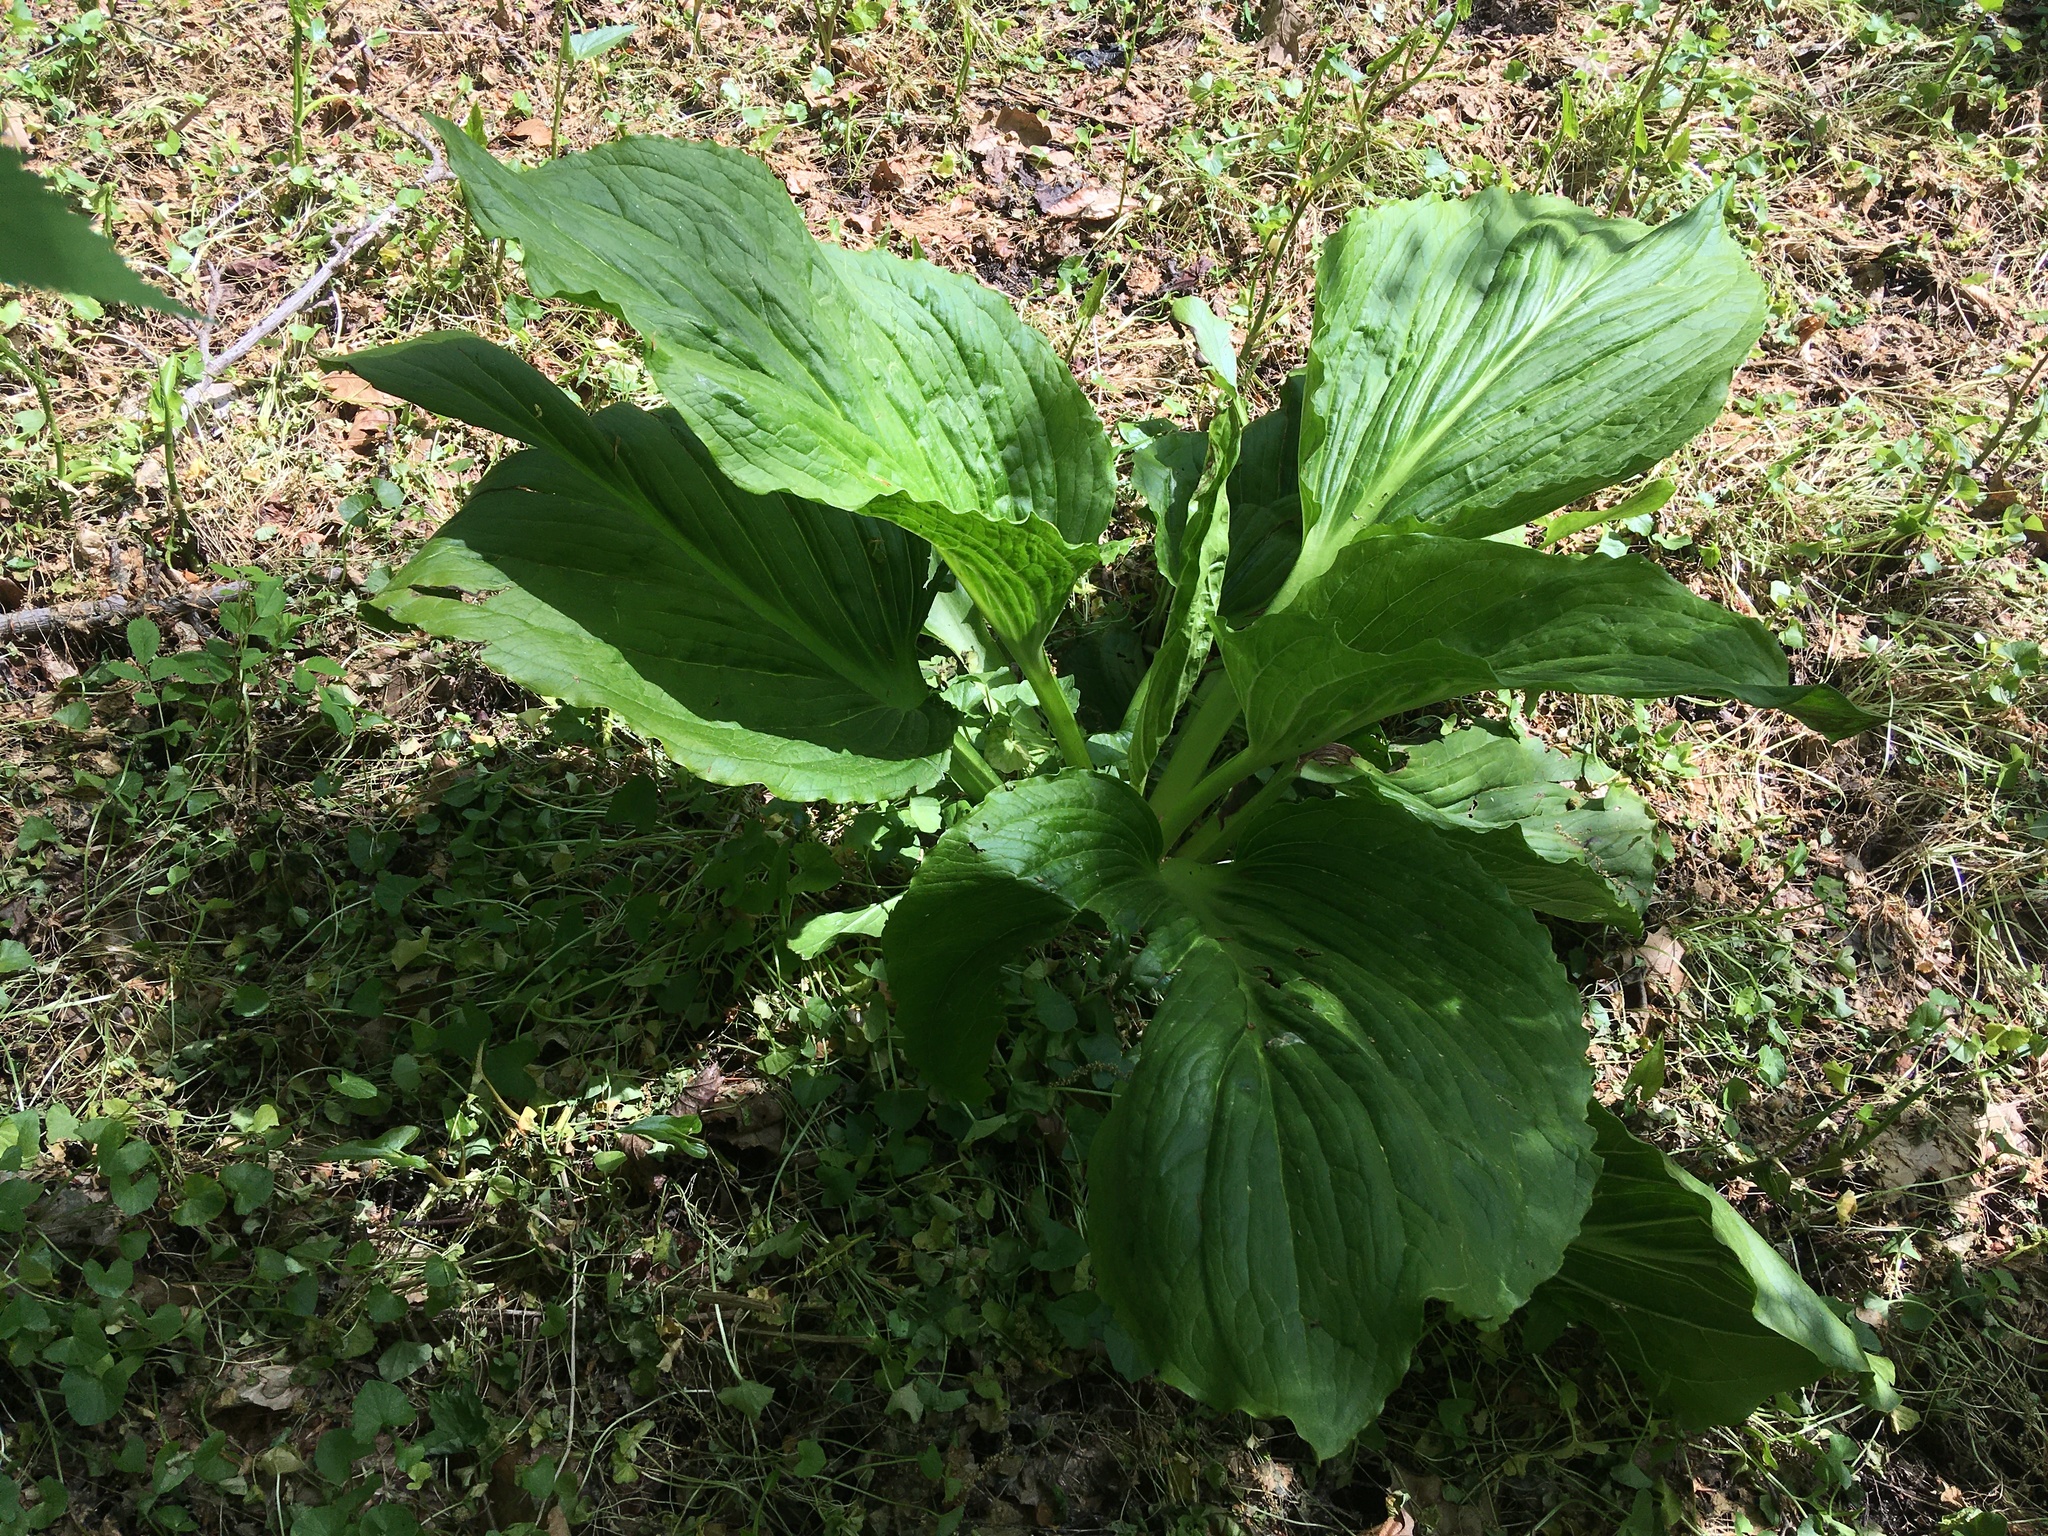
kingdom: Plantae
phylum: Tracheophyta
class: Liliopsida
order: Alismatales
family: Araceae
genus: Symplocarpus
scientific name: Symplocarpus foetidus
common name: Eastern skunk cabbage
